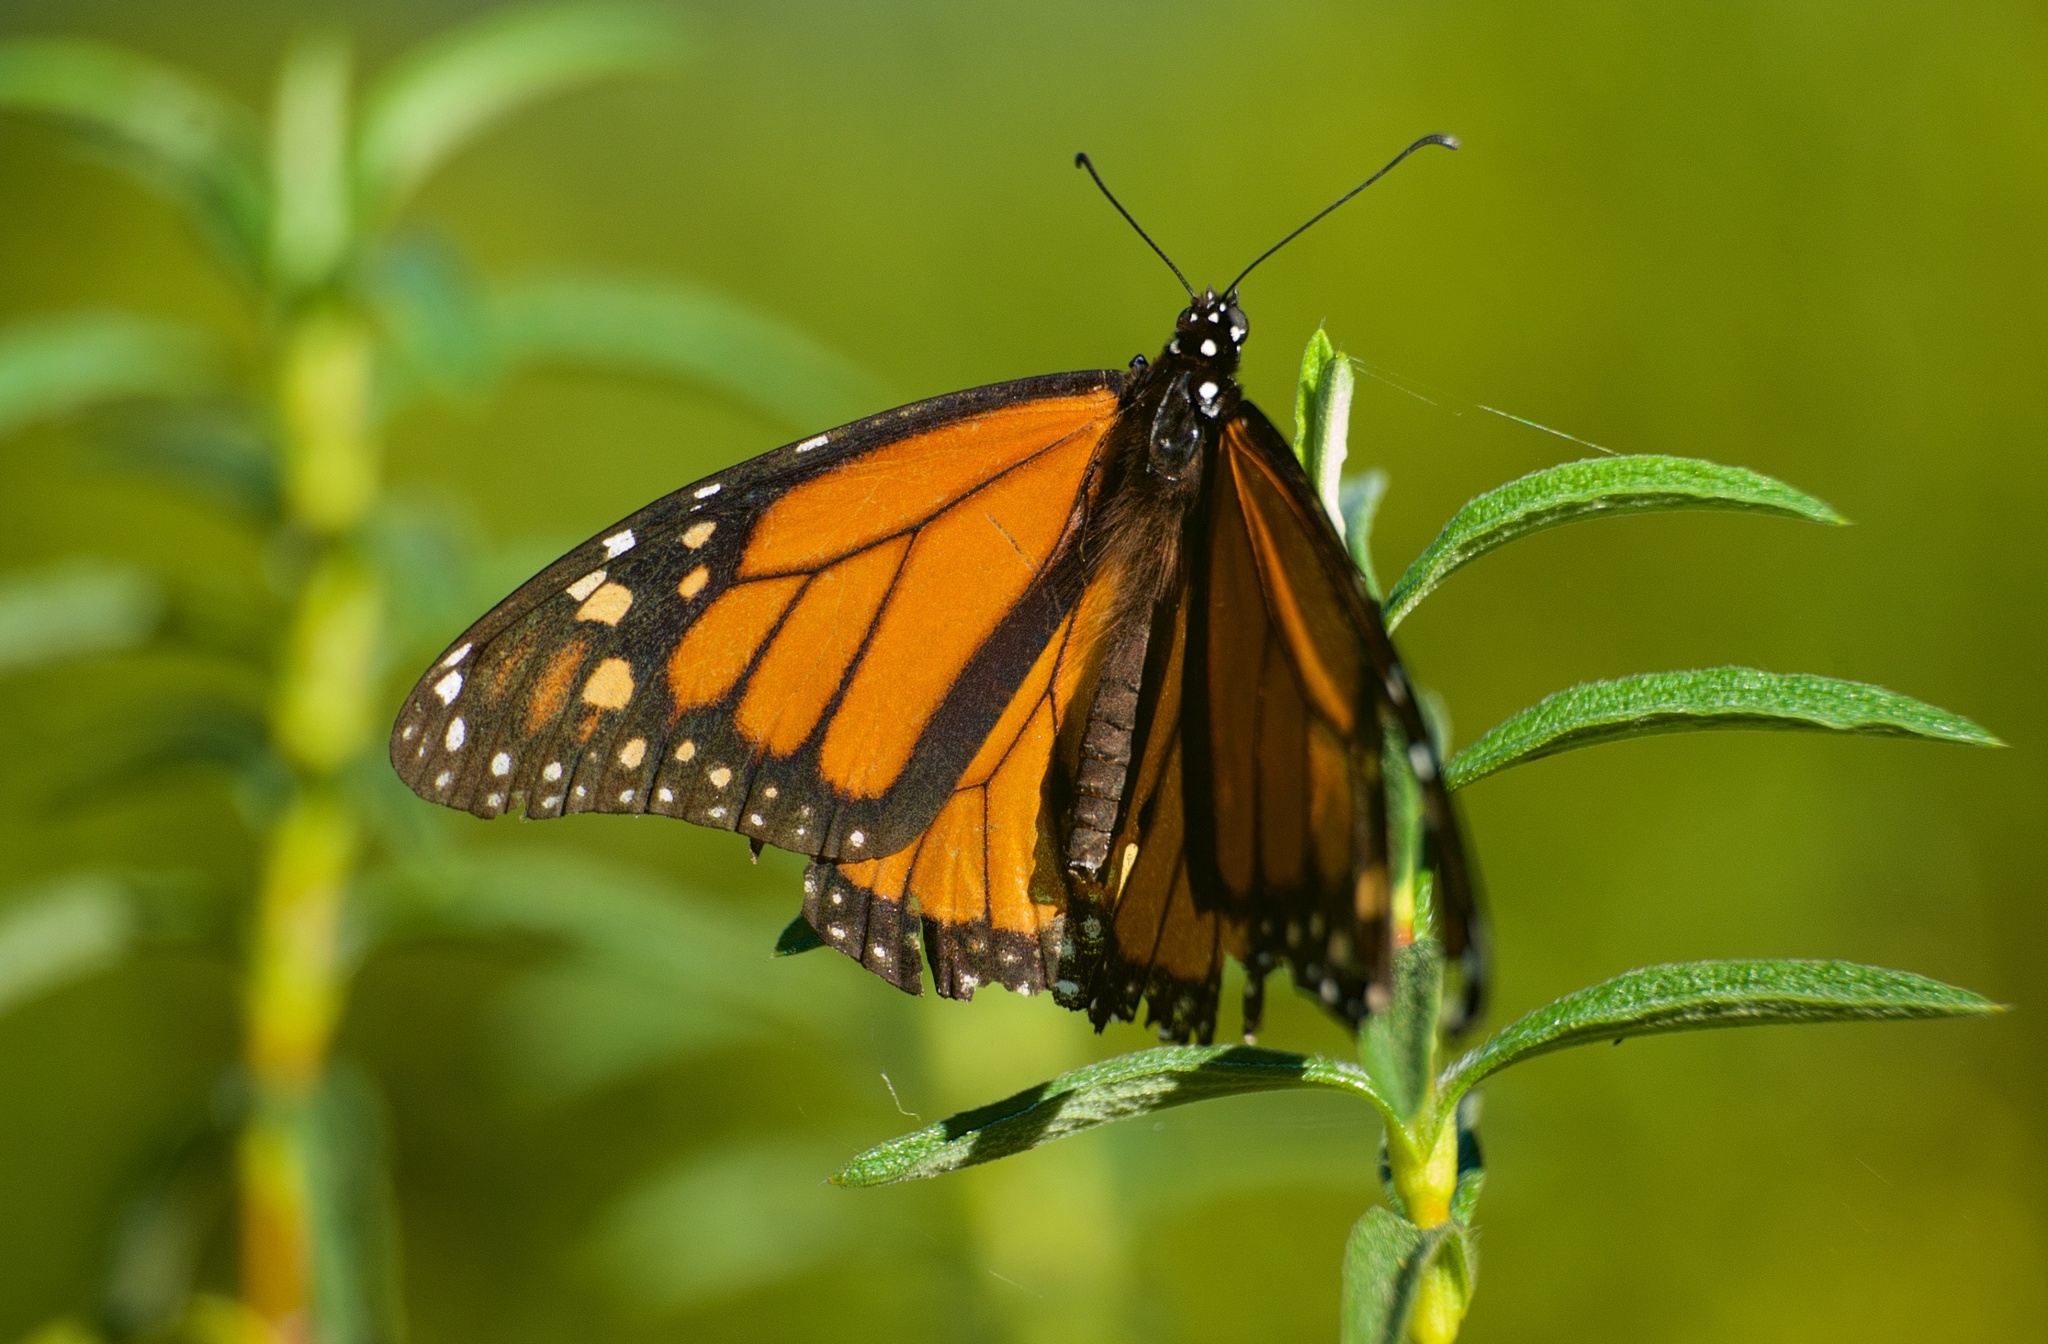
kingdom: Animalia
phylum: Arthropoda
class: Insecta
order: Lepidoptera
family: Nymphalidae
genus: Danaus
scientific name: Danaus plexippus
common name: Monarch
